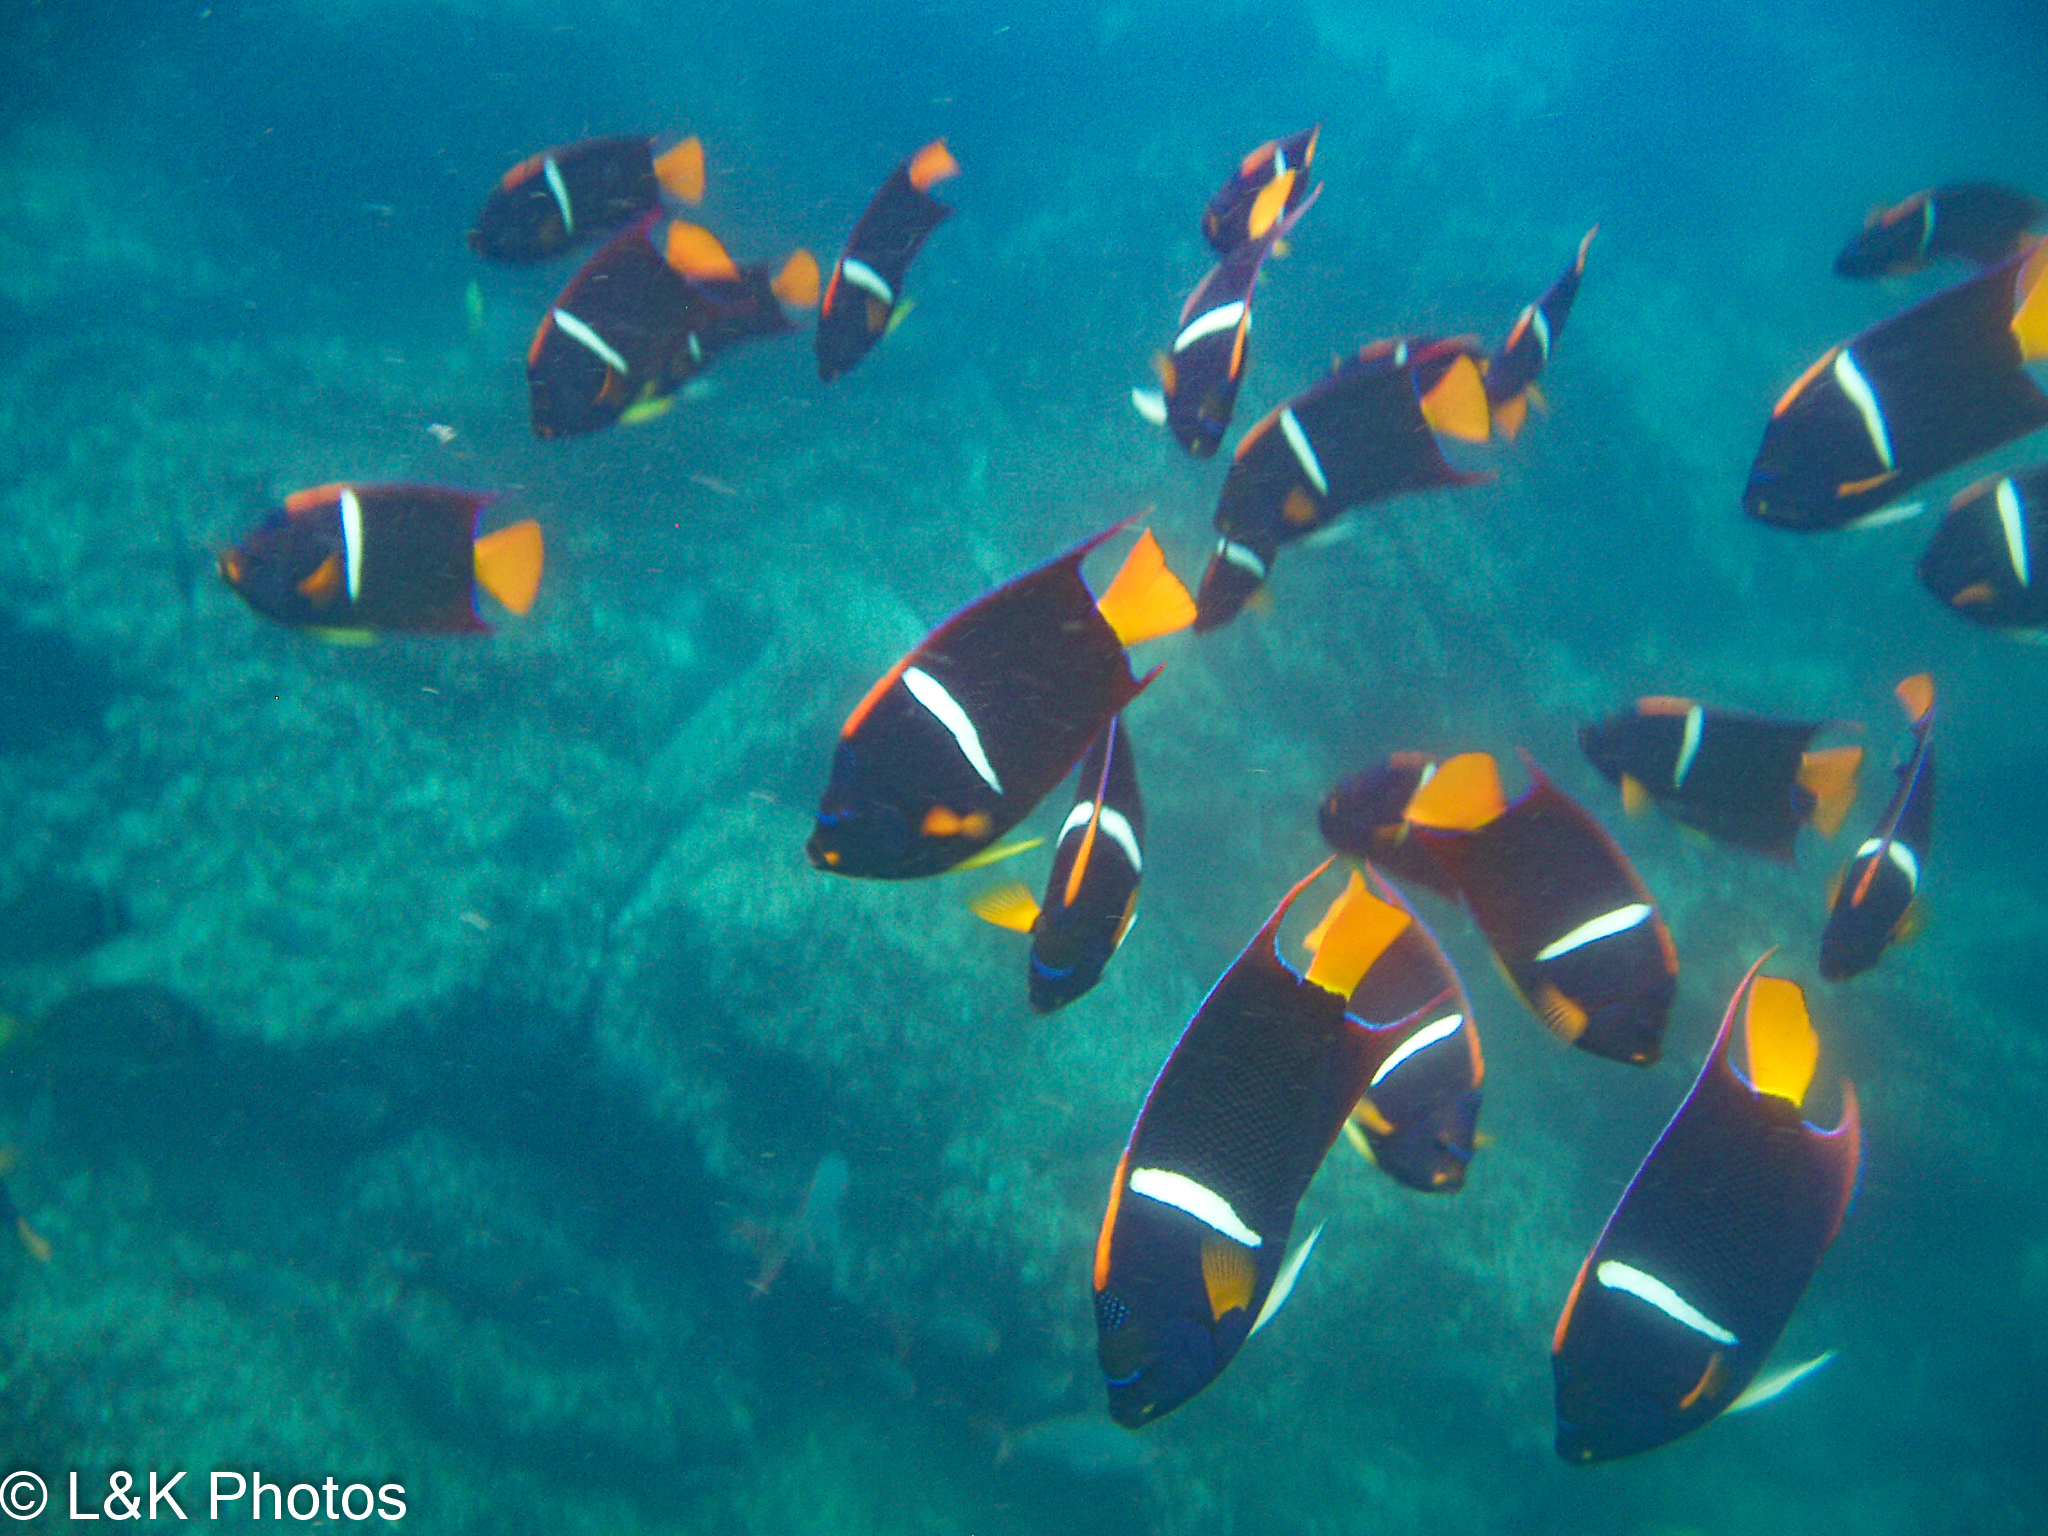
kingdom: Animalia
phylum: Chordata
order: Perciformes
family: Pomacanthidae
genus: Holacanthus
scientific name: Holacanthus passer
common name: King angelfish
